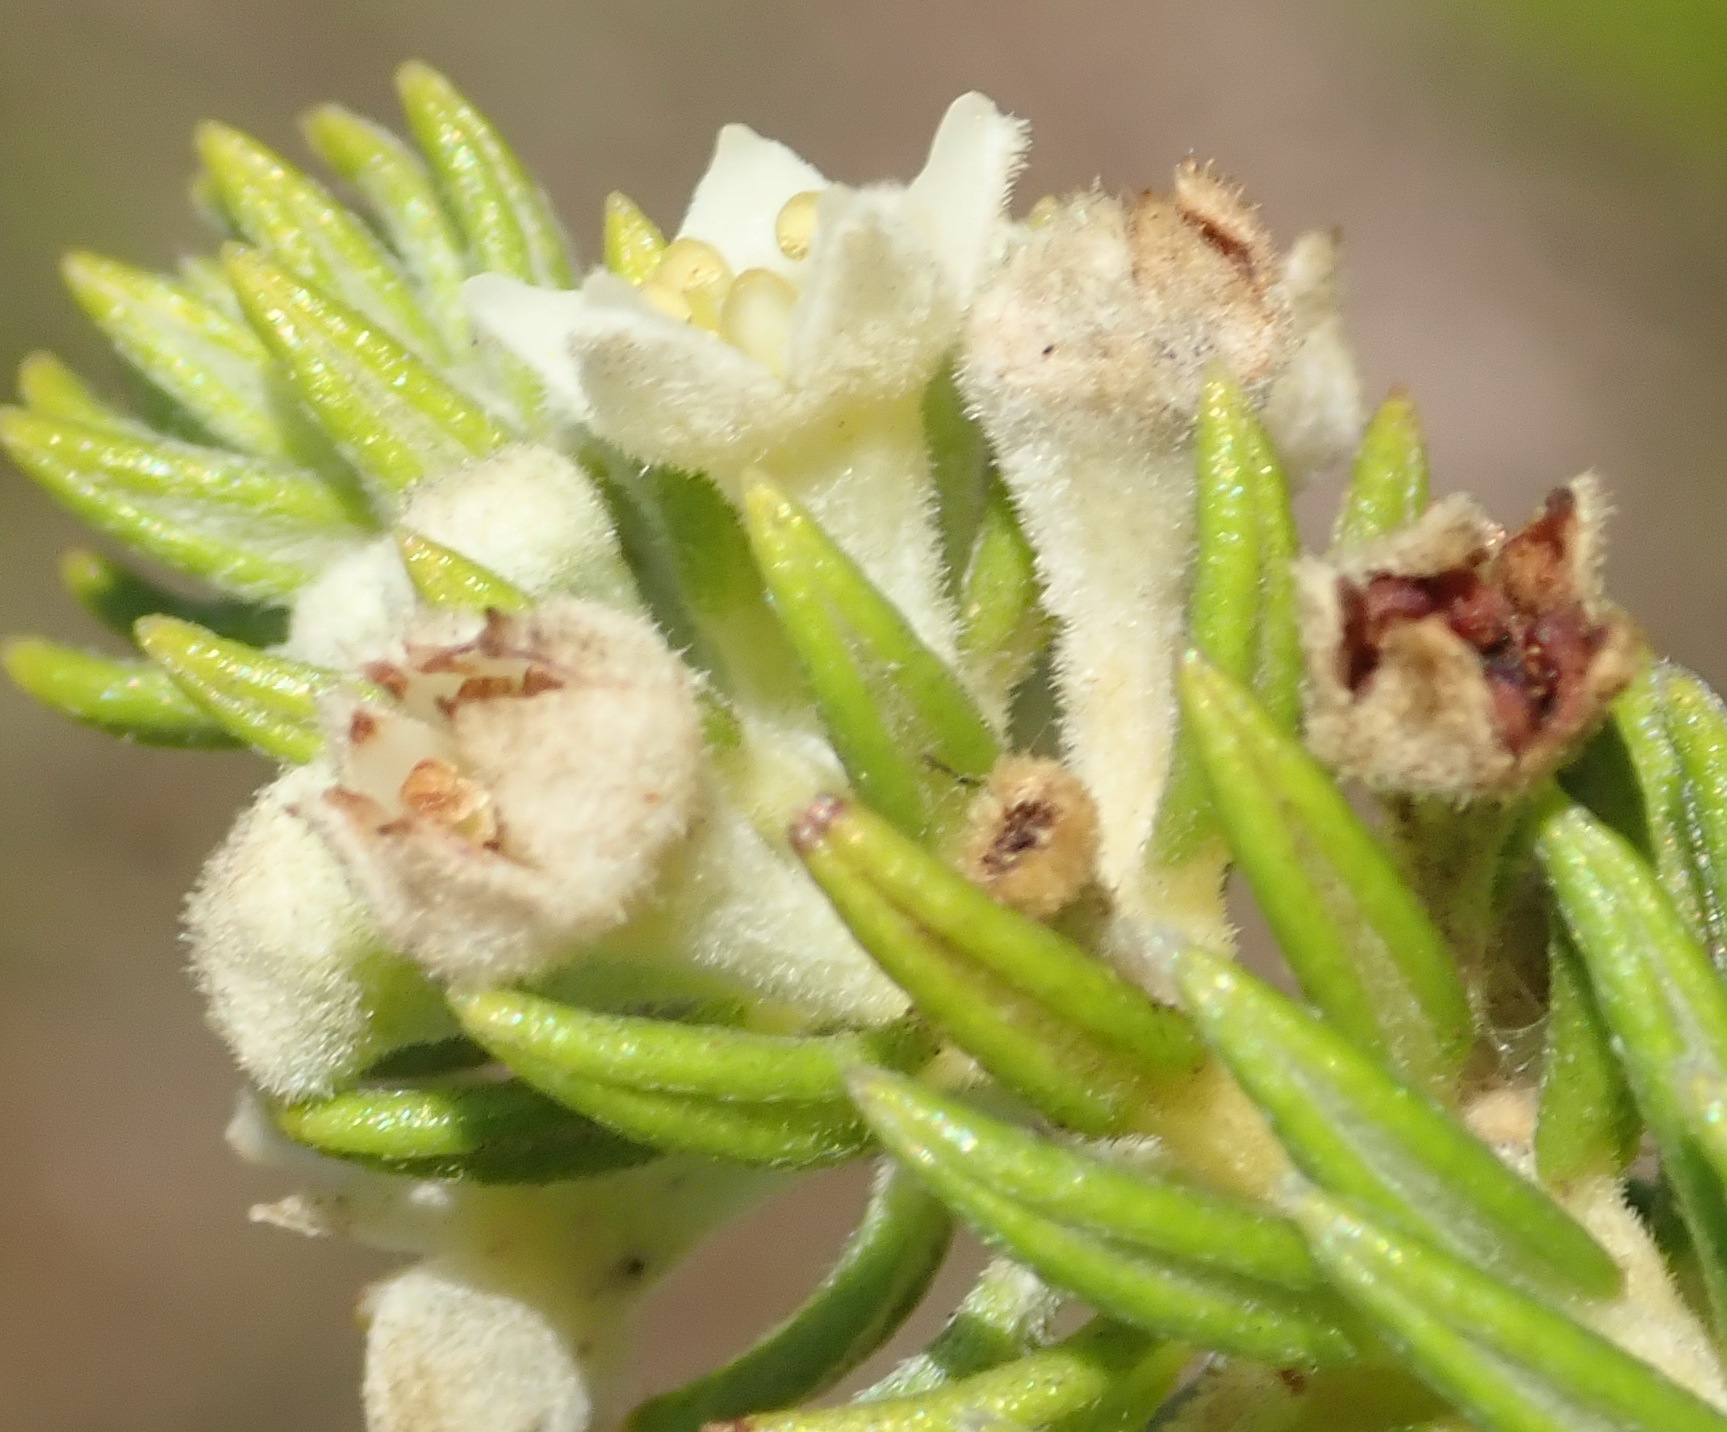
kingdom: Plantae
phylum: Tracheophyta
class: Magnoliopsida
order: Rosales
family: Rhamnaceae
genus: Phylica
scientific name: Phylica axillaris
